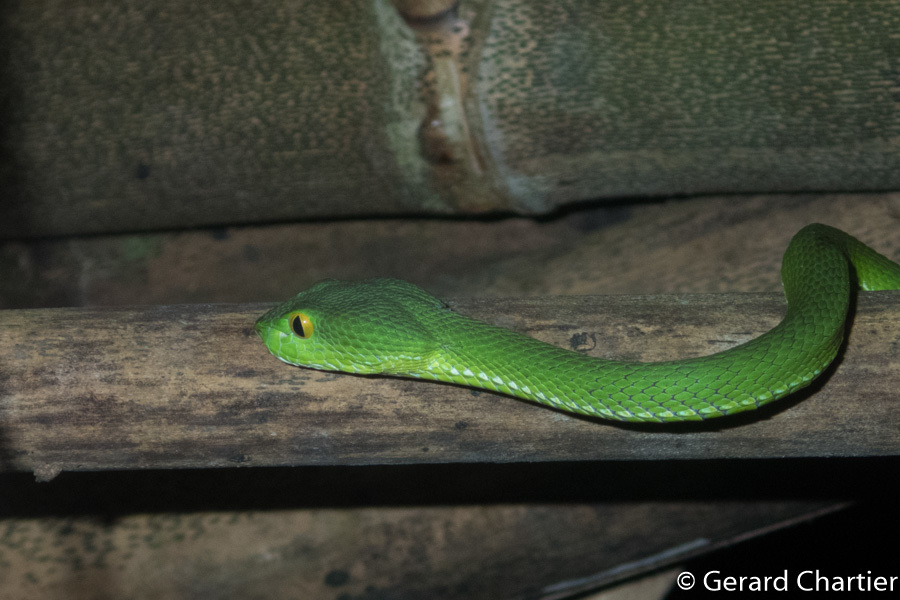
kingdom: Animalia
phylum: Chordata
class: Squamata
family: Viperidae
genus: Trimeresurus
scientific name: Trimeresurus cardamomensis
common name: Cardamom mountains green pitviper
